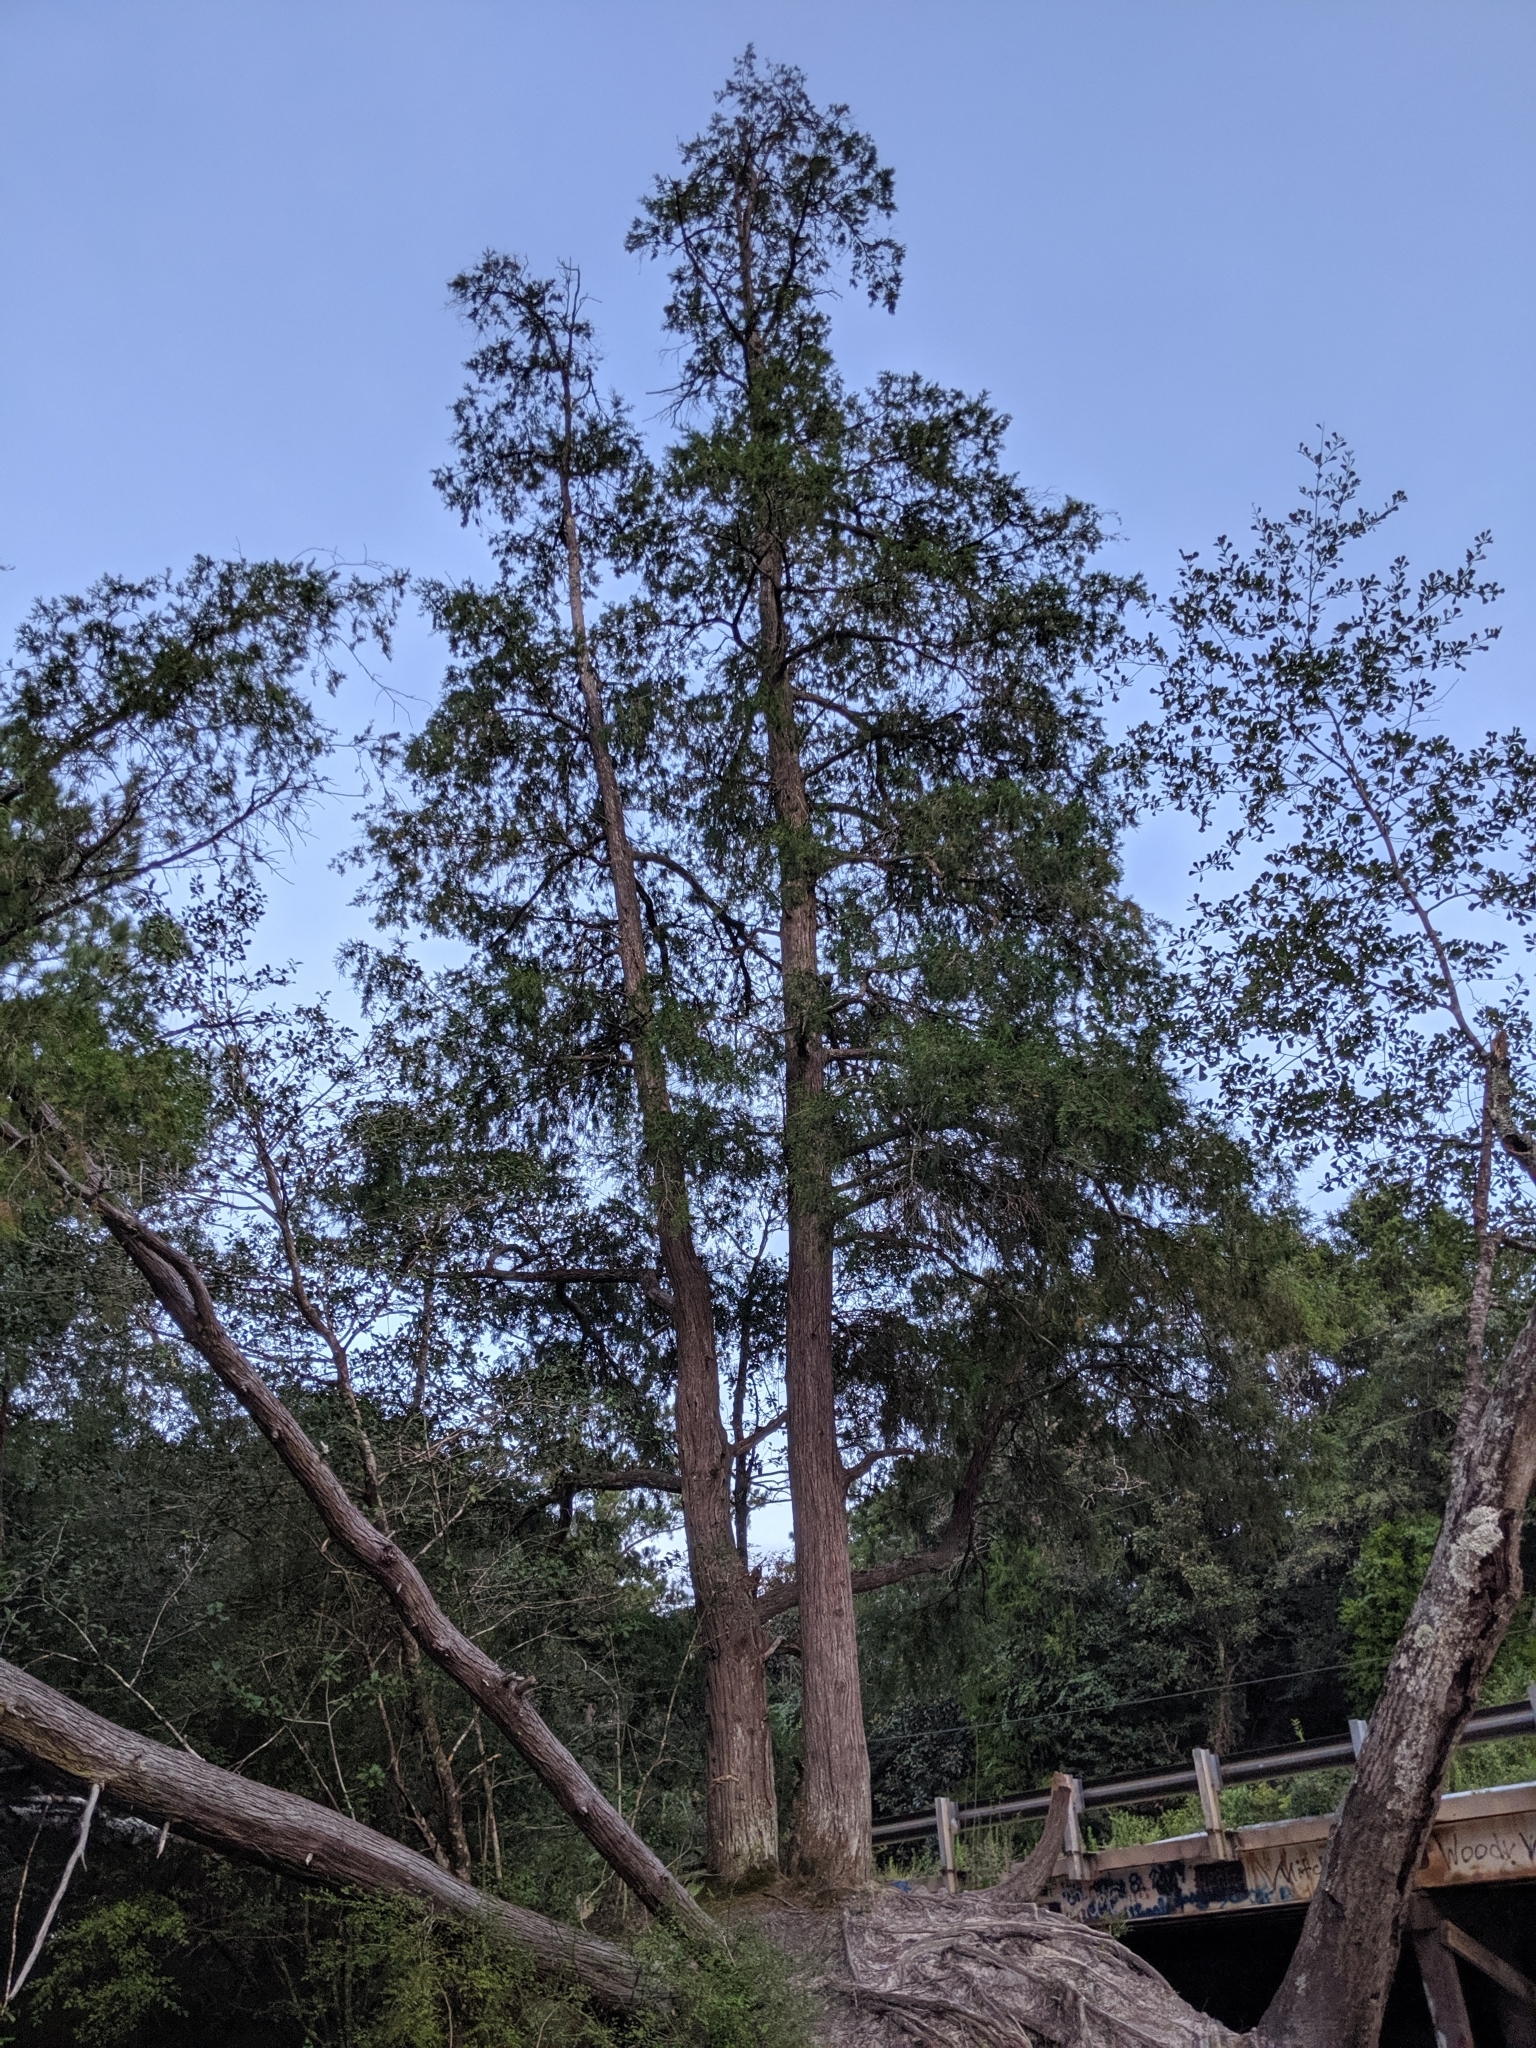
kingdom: Plantae
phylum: Tracheophyta
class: Pinopsida
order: Pinales
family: Cupressaceae
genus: Chamaecyparis
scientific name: Chamaecyparis thyoides
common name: Atlantic white cedar
